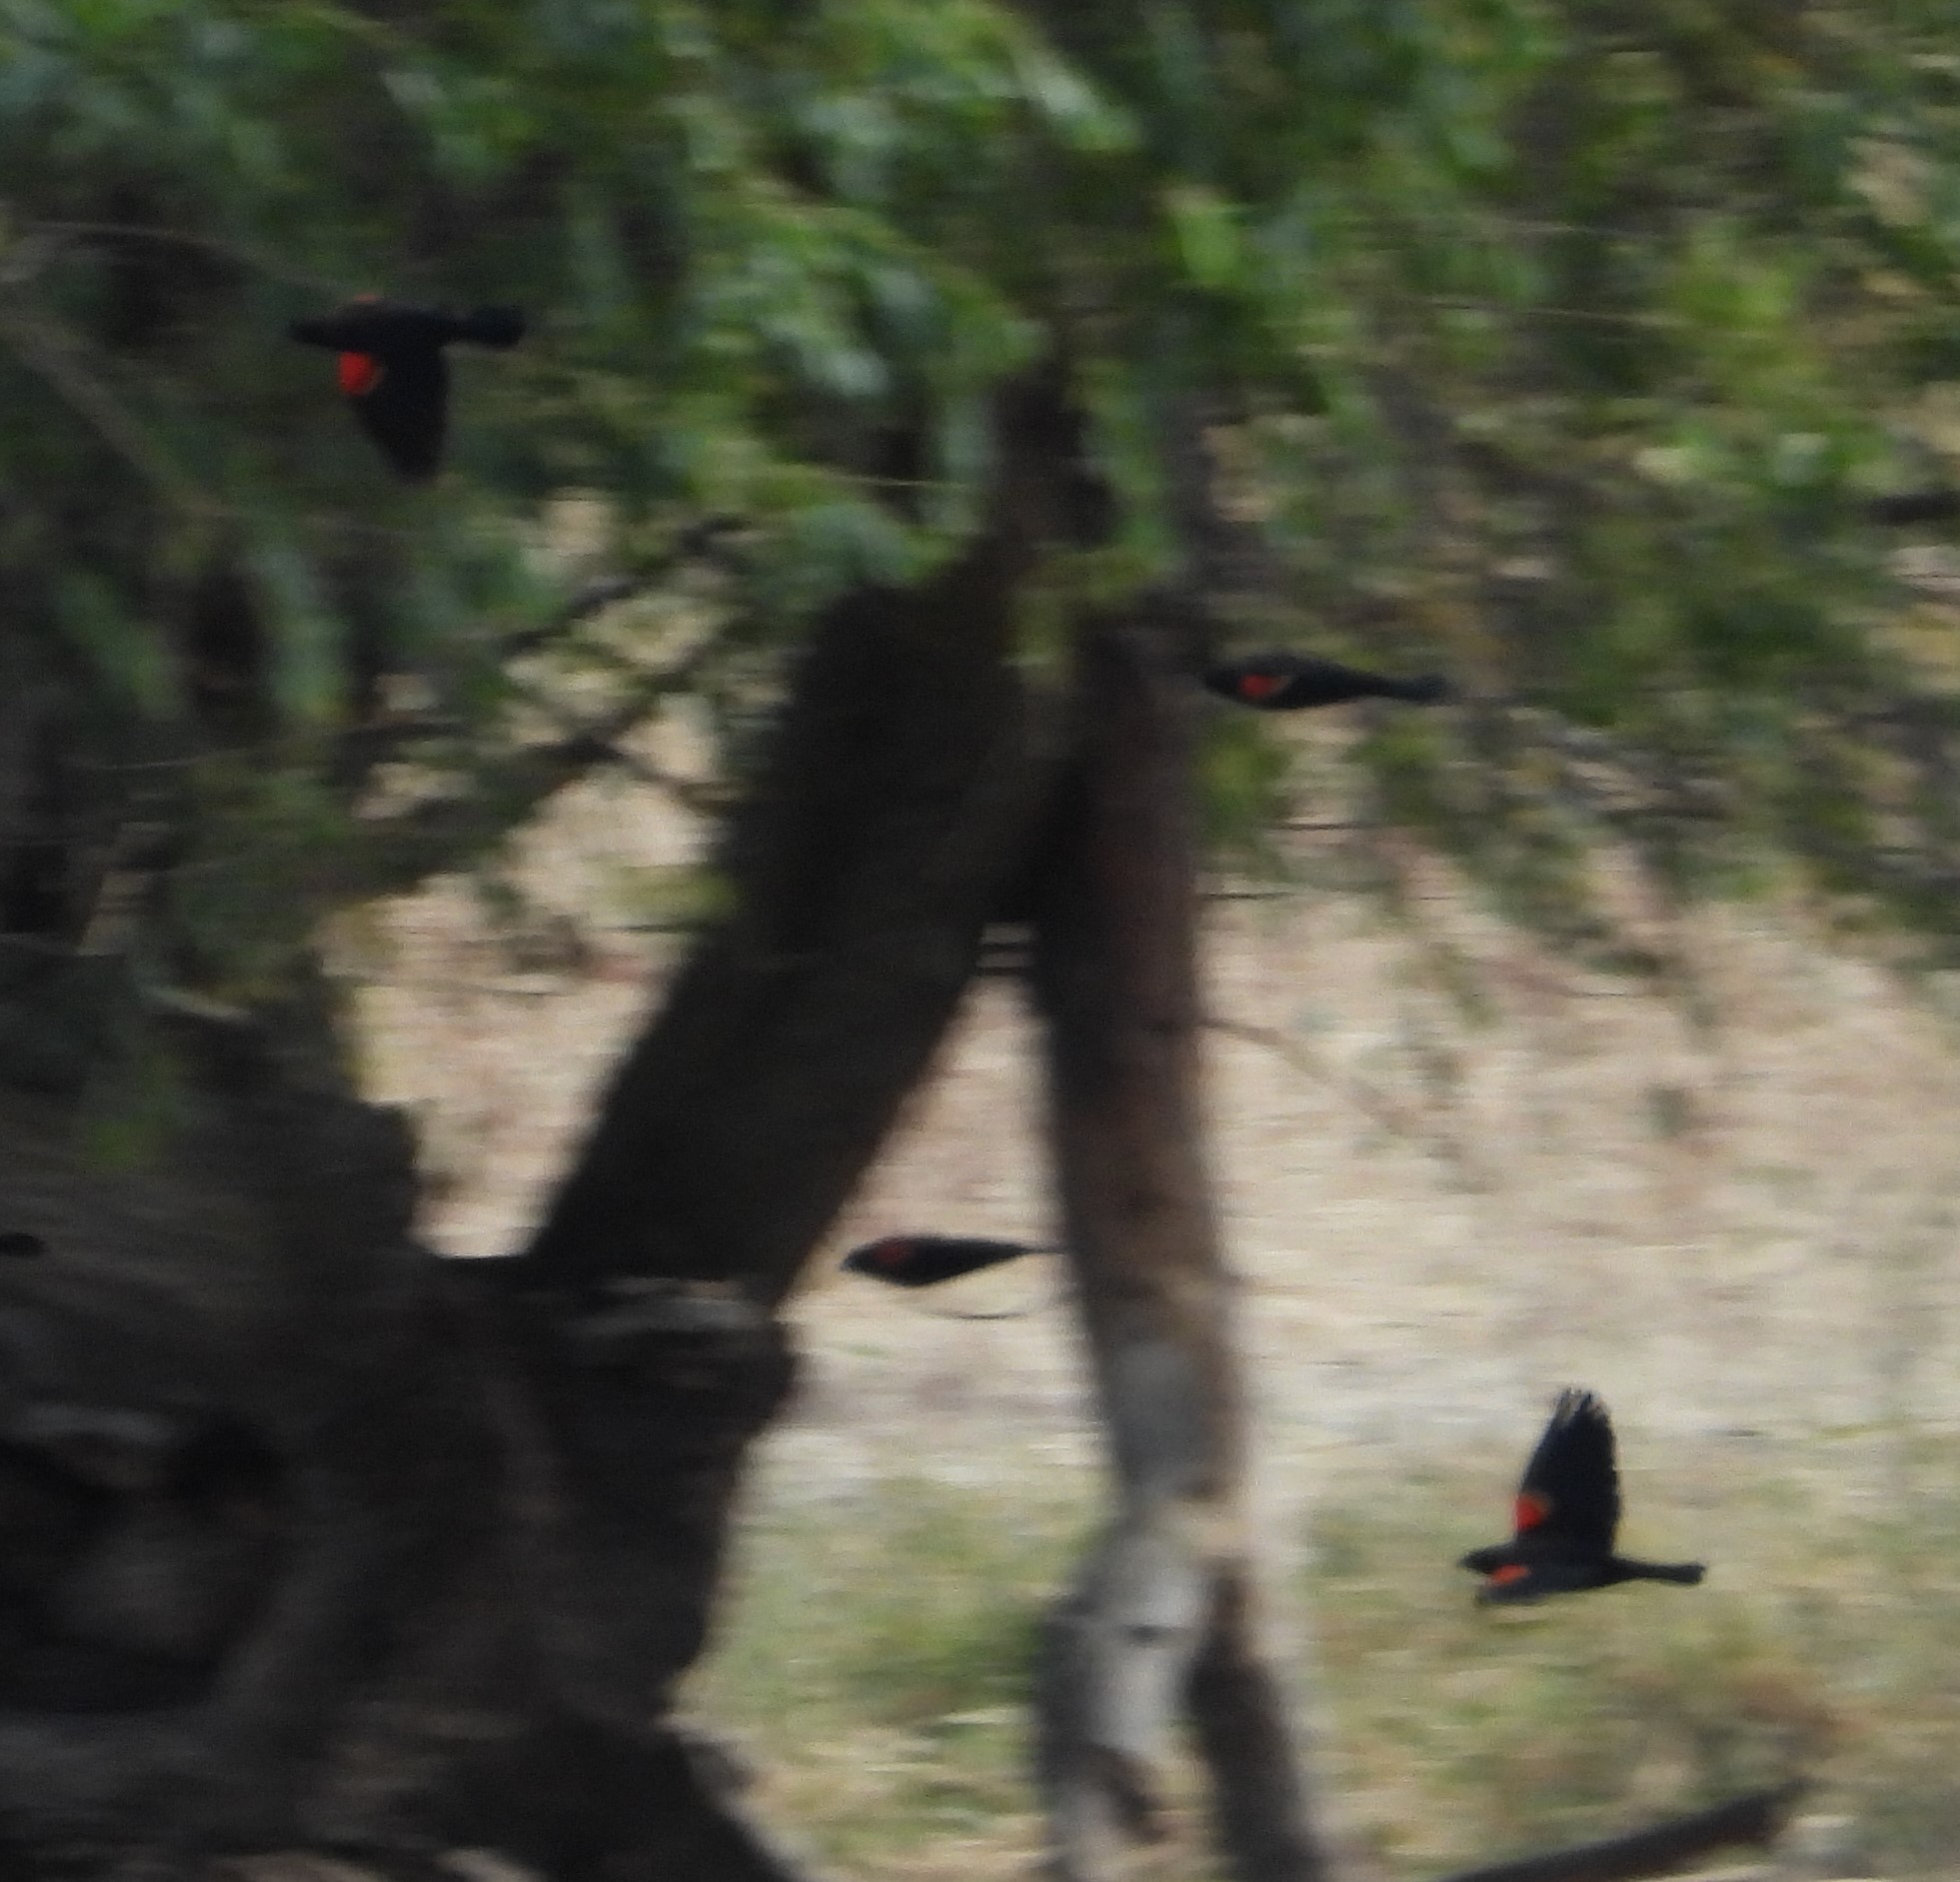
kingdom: Animalia
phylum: Chordata
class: Aves
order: Passeriformes
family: Icteridae
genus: Agelaius
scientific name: Agelaius phoeniceus
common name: Red-winged blackbird
